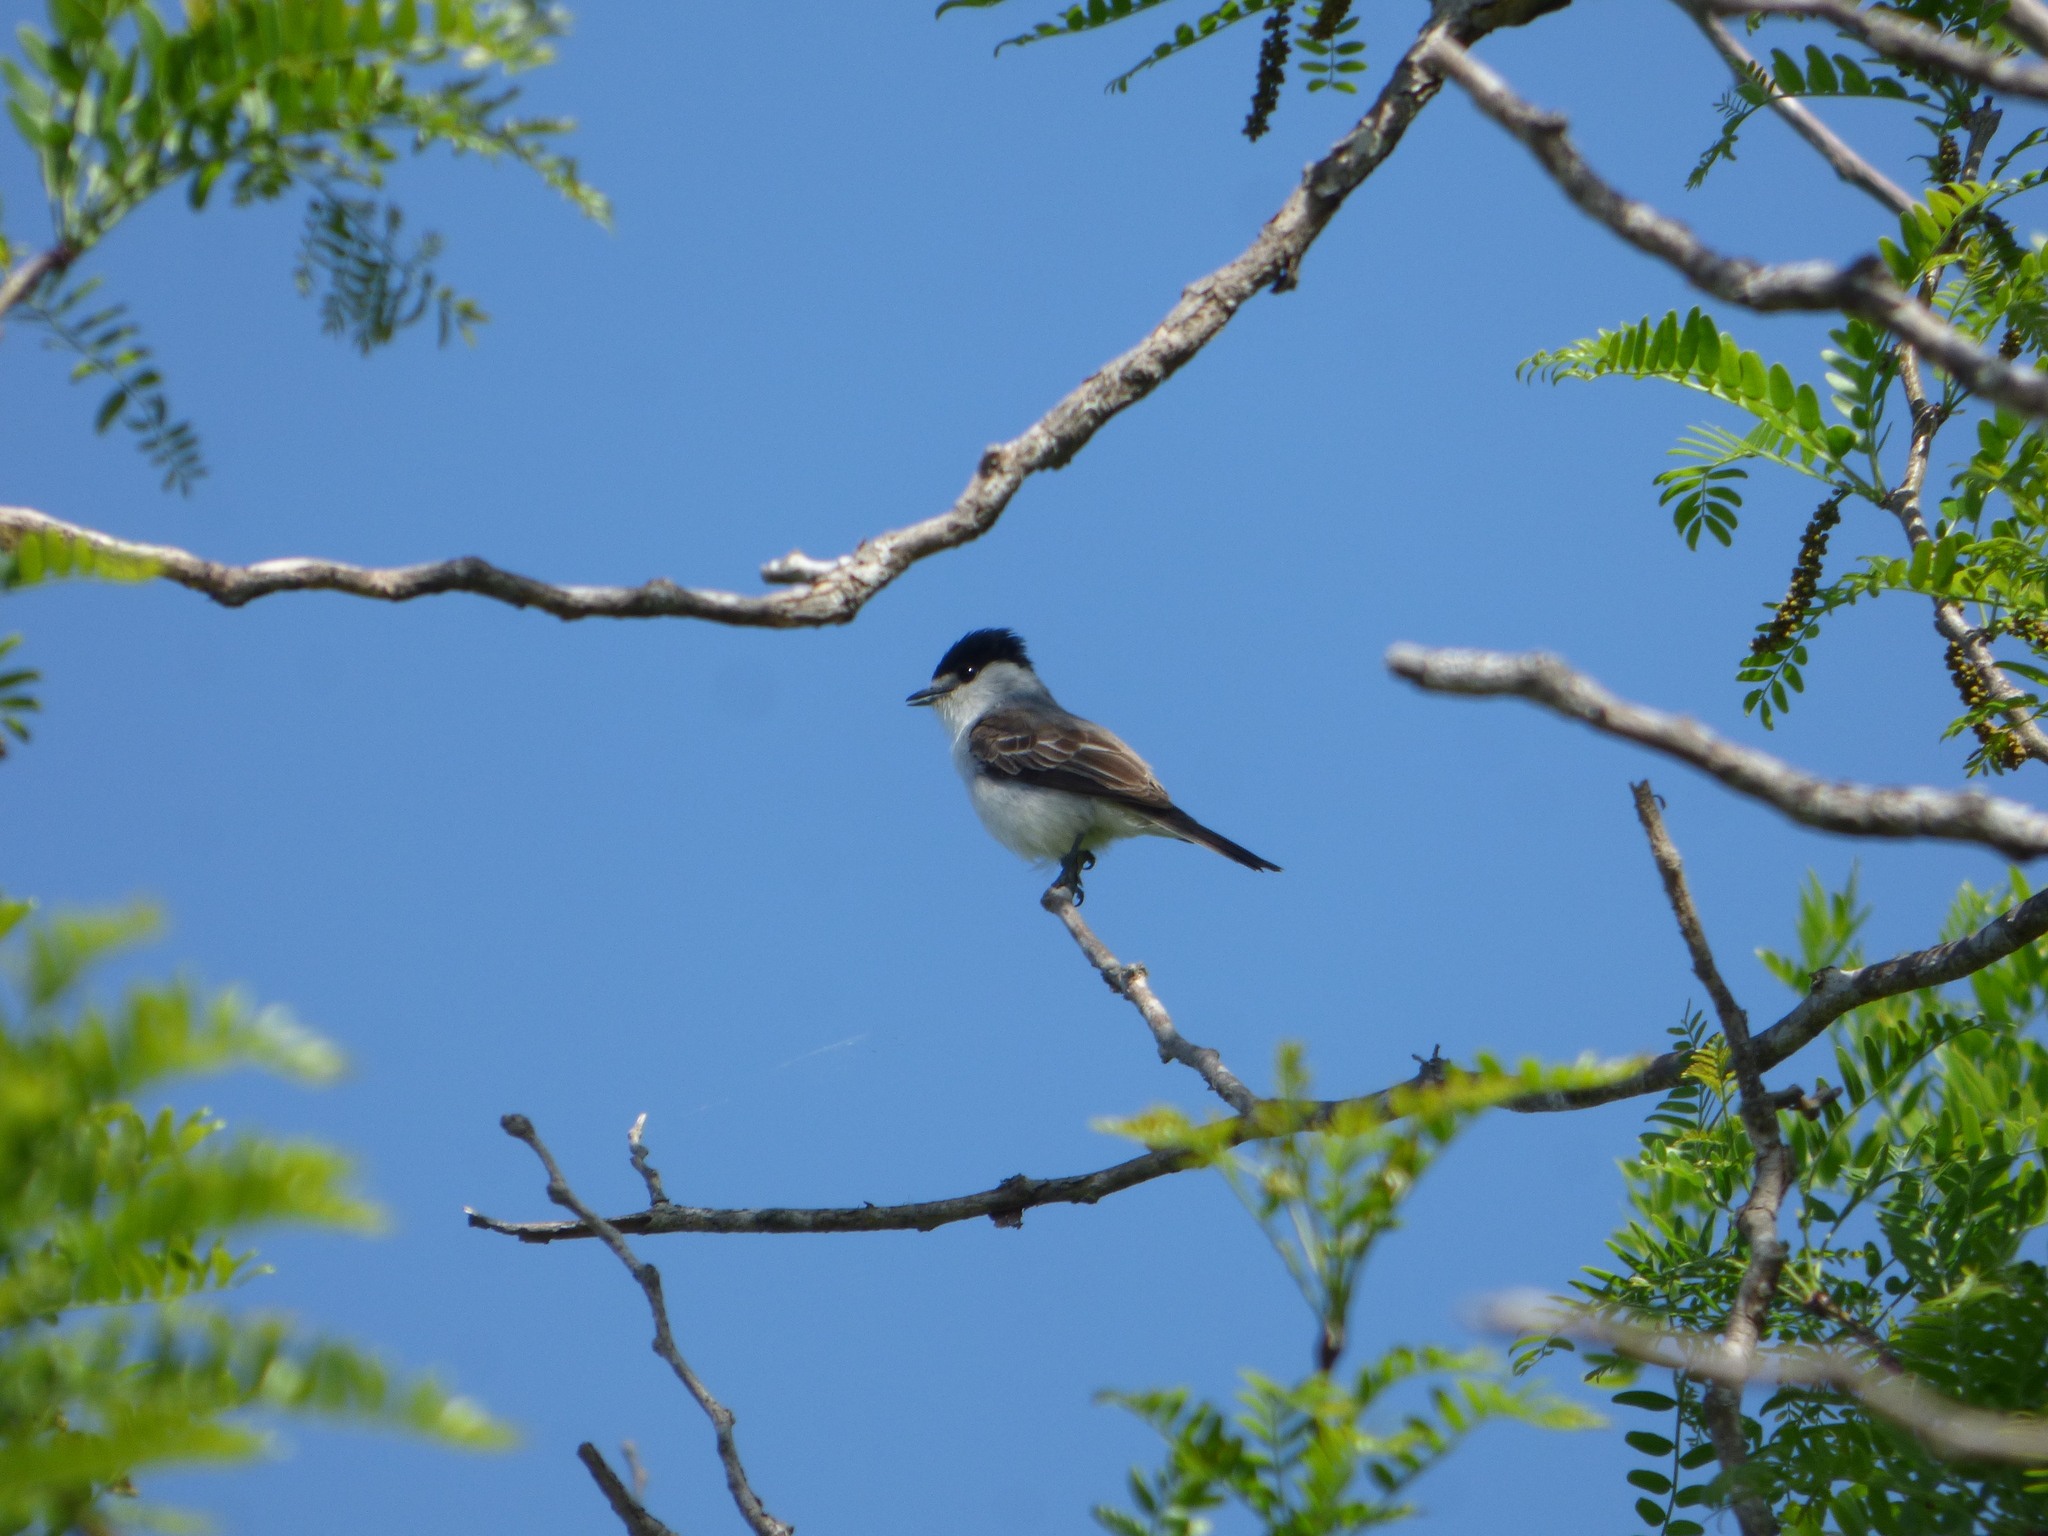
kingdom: Animalia
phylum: Chordata
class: Aves
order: Passeriformes
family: Cotingidae
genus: Xenopsaris
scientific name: Xenopsaris albinucha
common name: White-naped xenopsaris
